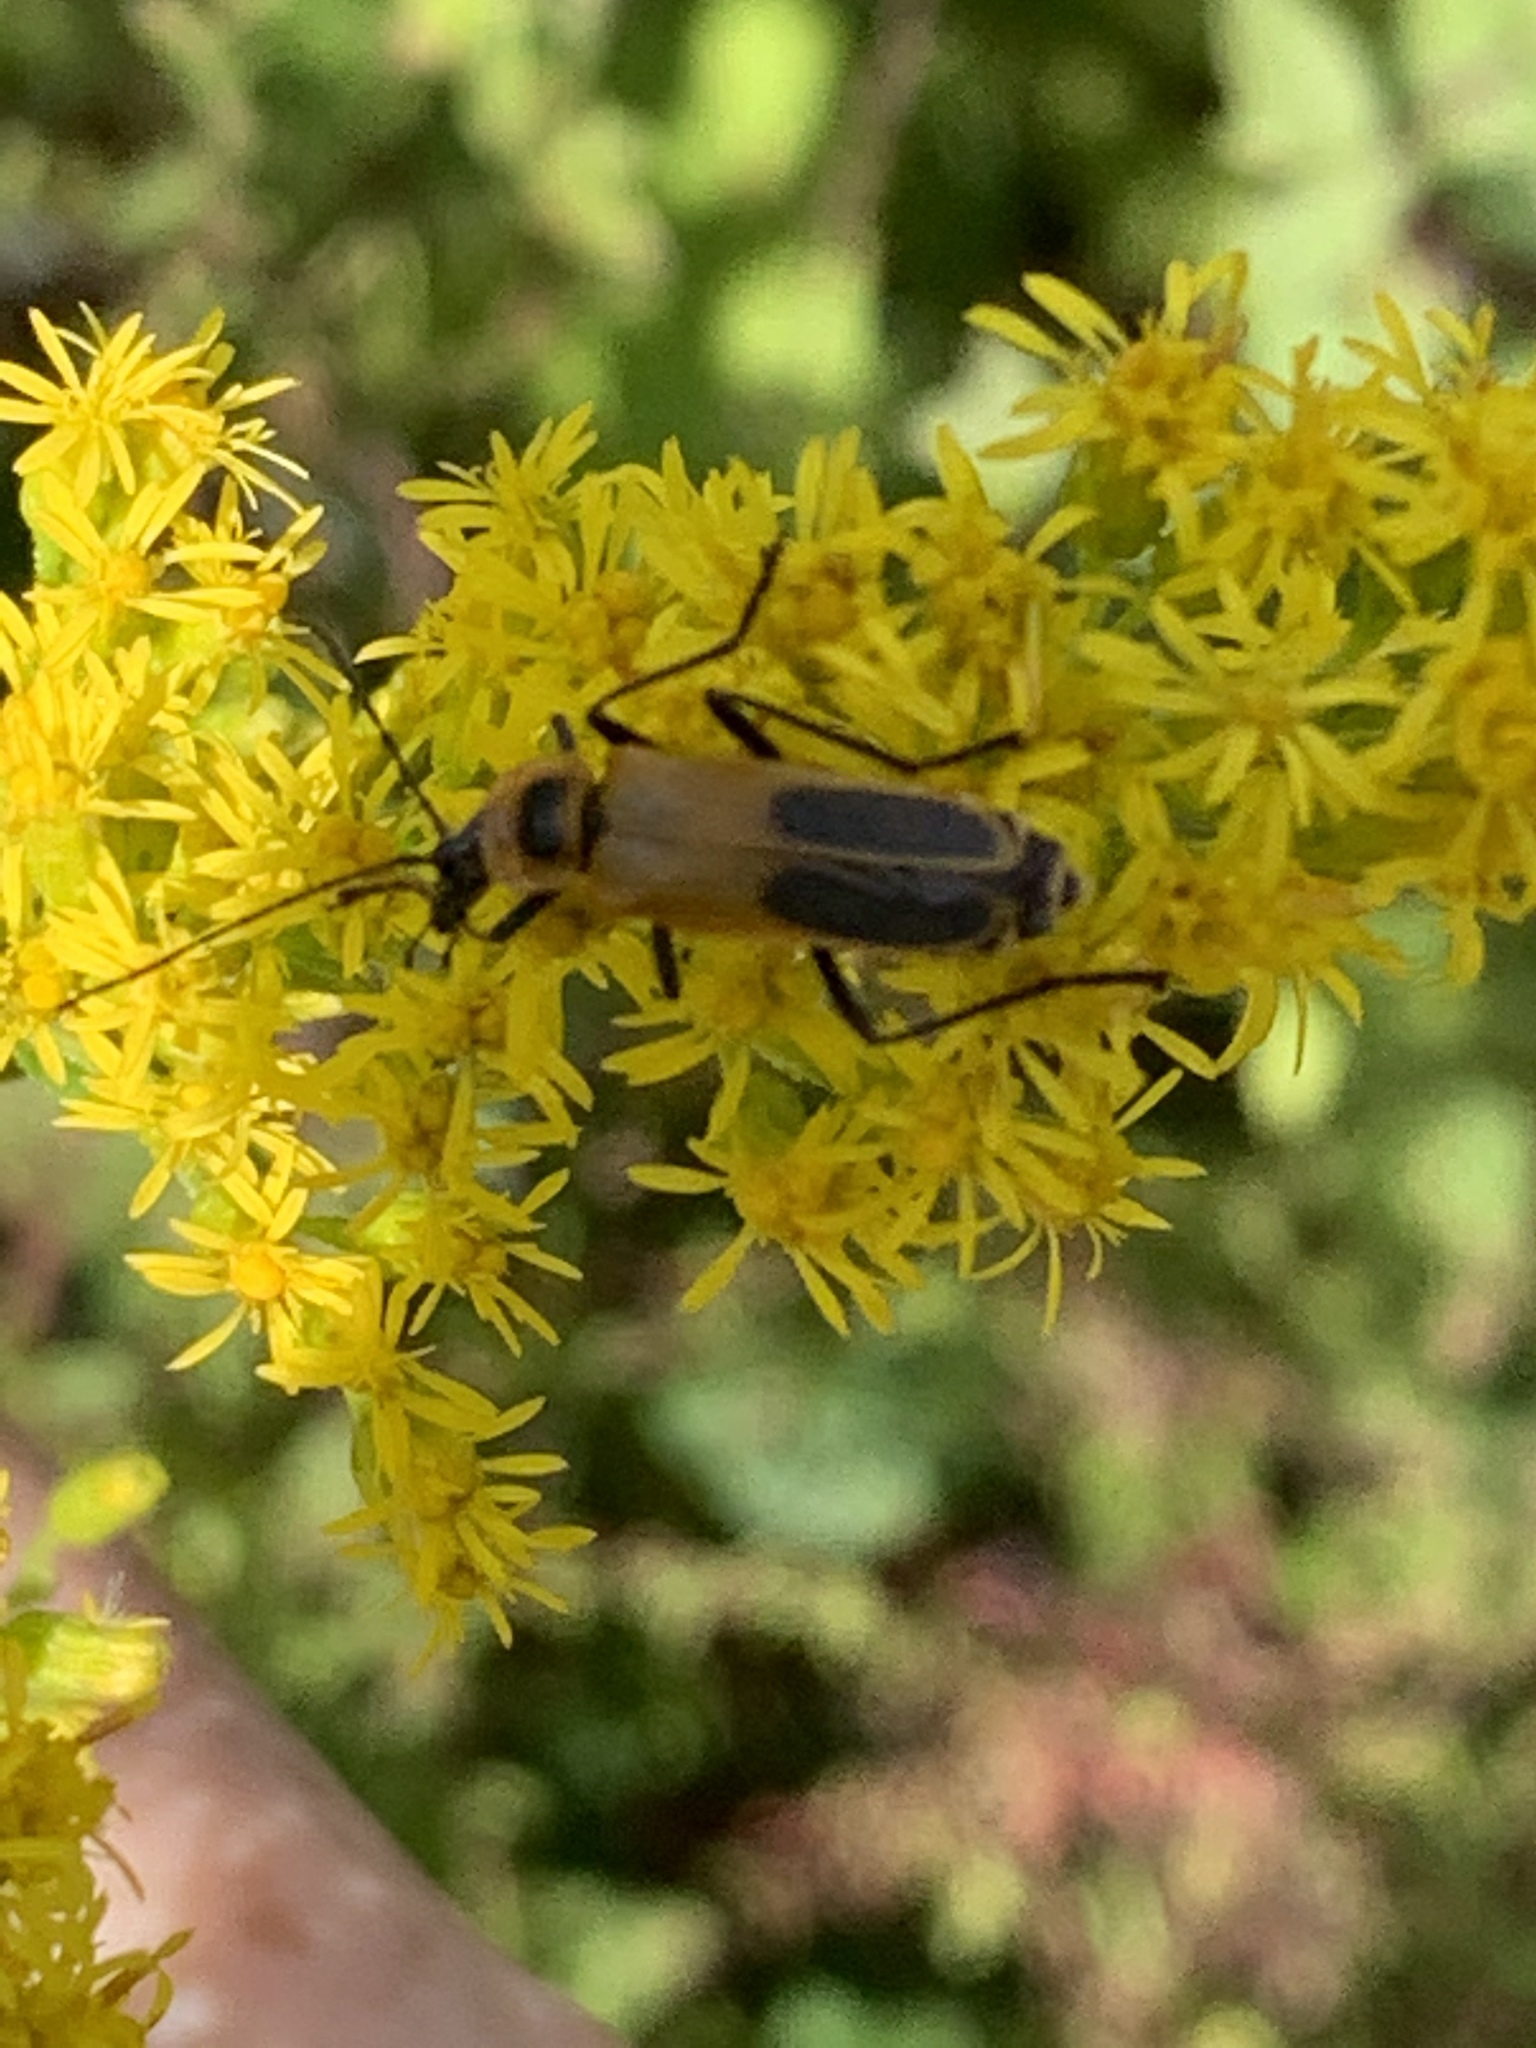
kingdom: Animalia
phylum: Arthropoda
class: Insecta
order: Coleoptera
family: Cantharidae
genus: Chauliognathus
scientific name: Chauliognathus pensylvanicus
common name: Goldenrod soldier beetle
